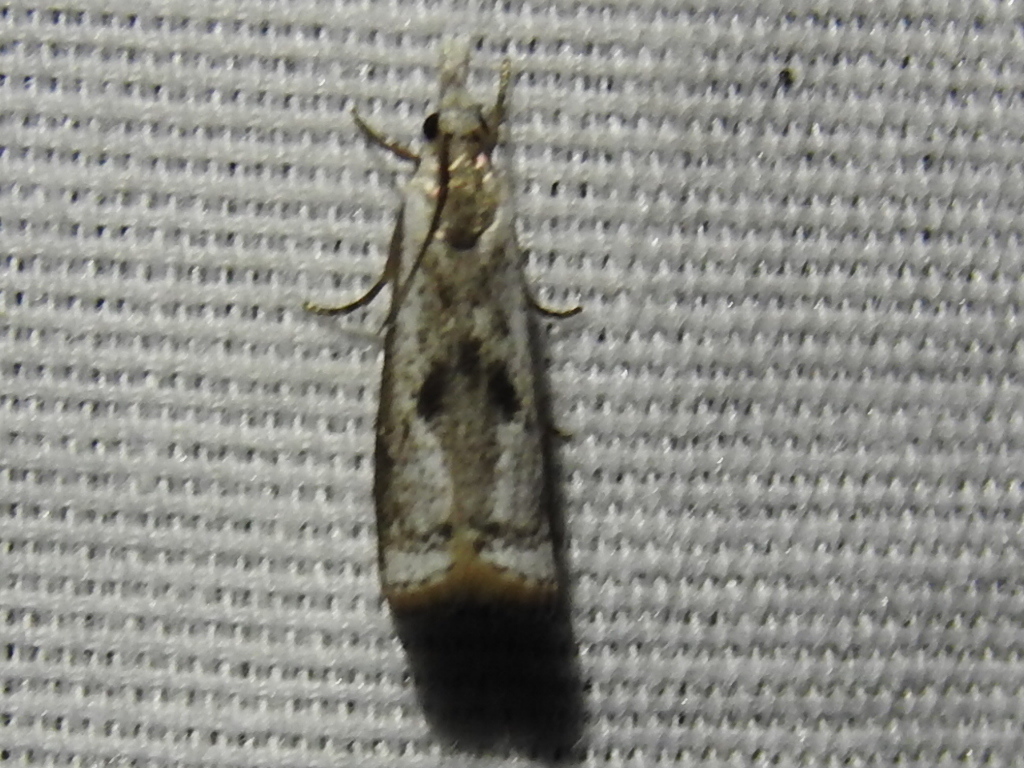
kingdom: Animalia
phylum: Arthropoda
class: Insecta
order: Lepidoptera
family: Crambidae
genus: Microcrambus
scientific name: Microcrambus elegans
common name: Elegant grass-veneer
